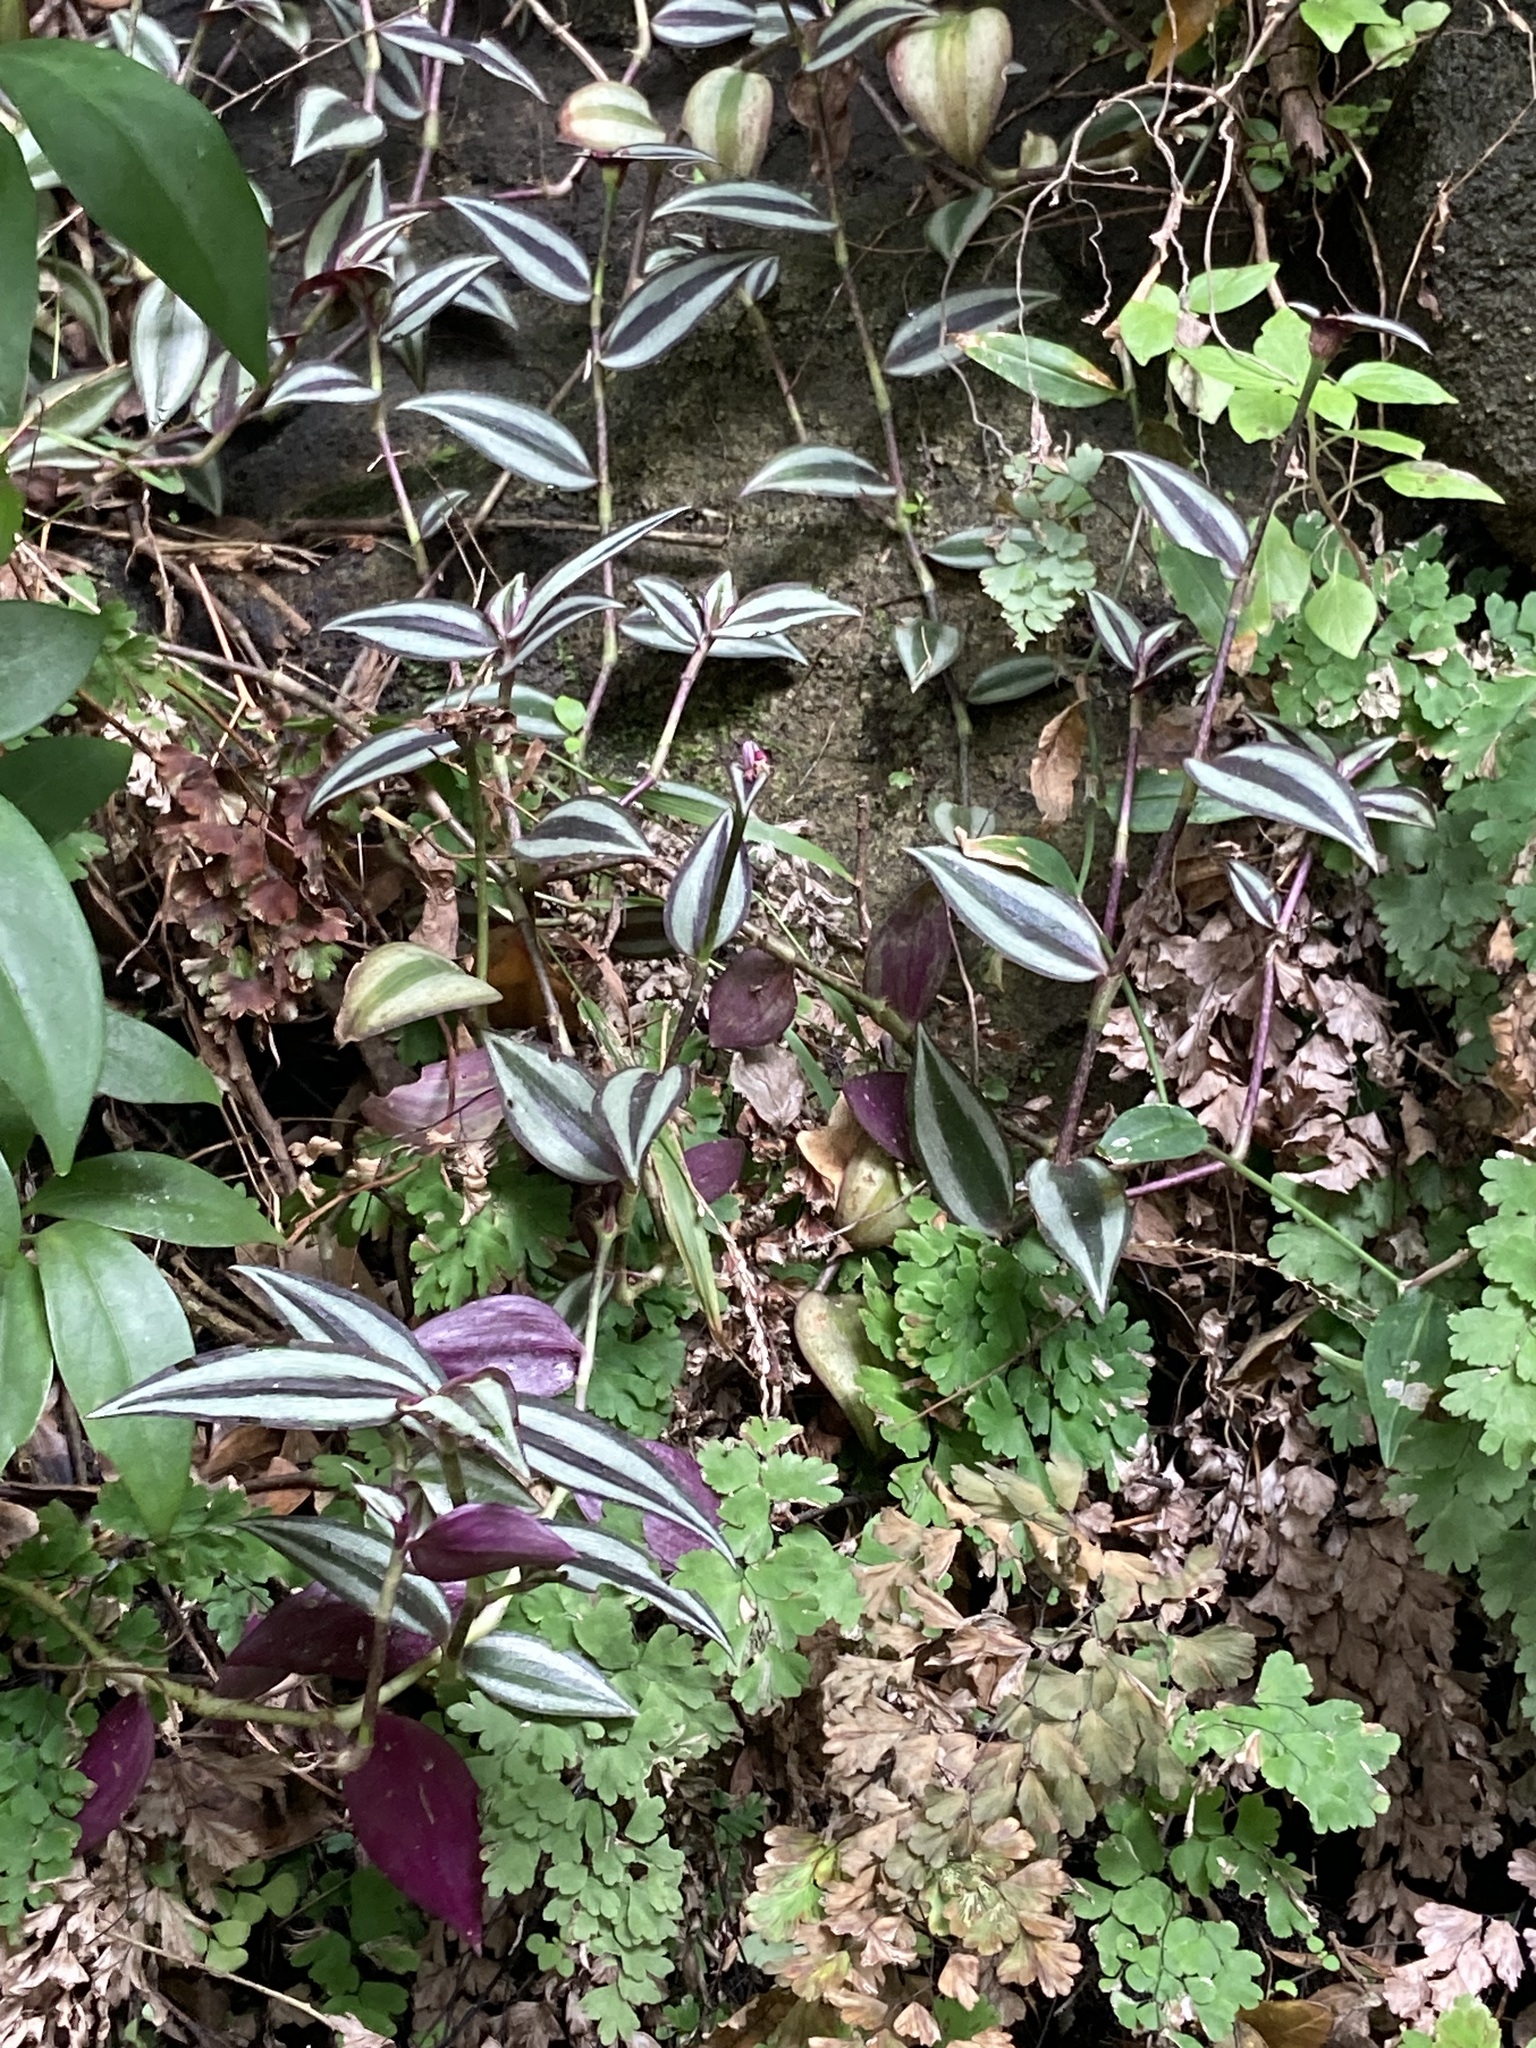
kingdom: Plantae
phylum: Tracheophyta
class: Liliopsida
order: Commelinales
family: Commelinaceae
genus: Tradescantia
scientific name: Tradescantia zebrina
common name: Inchplant
